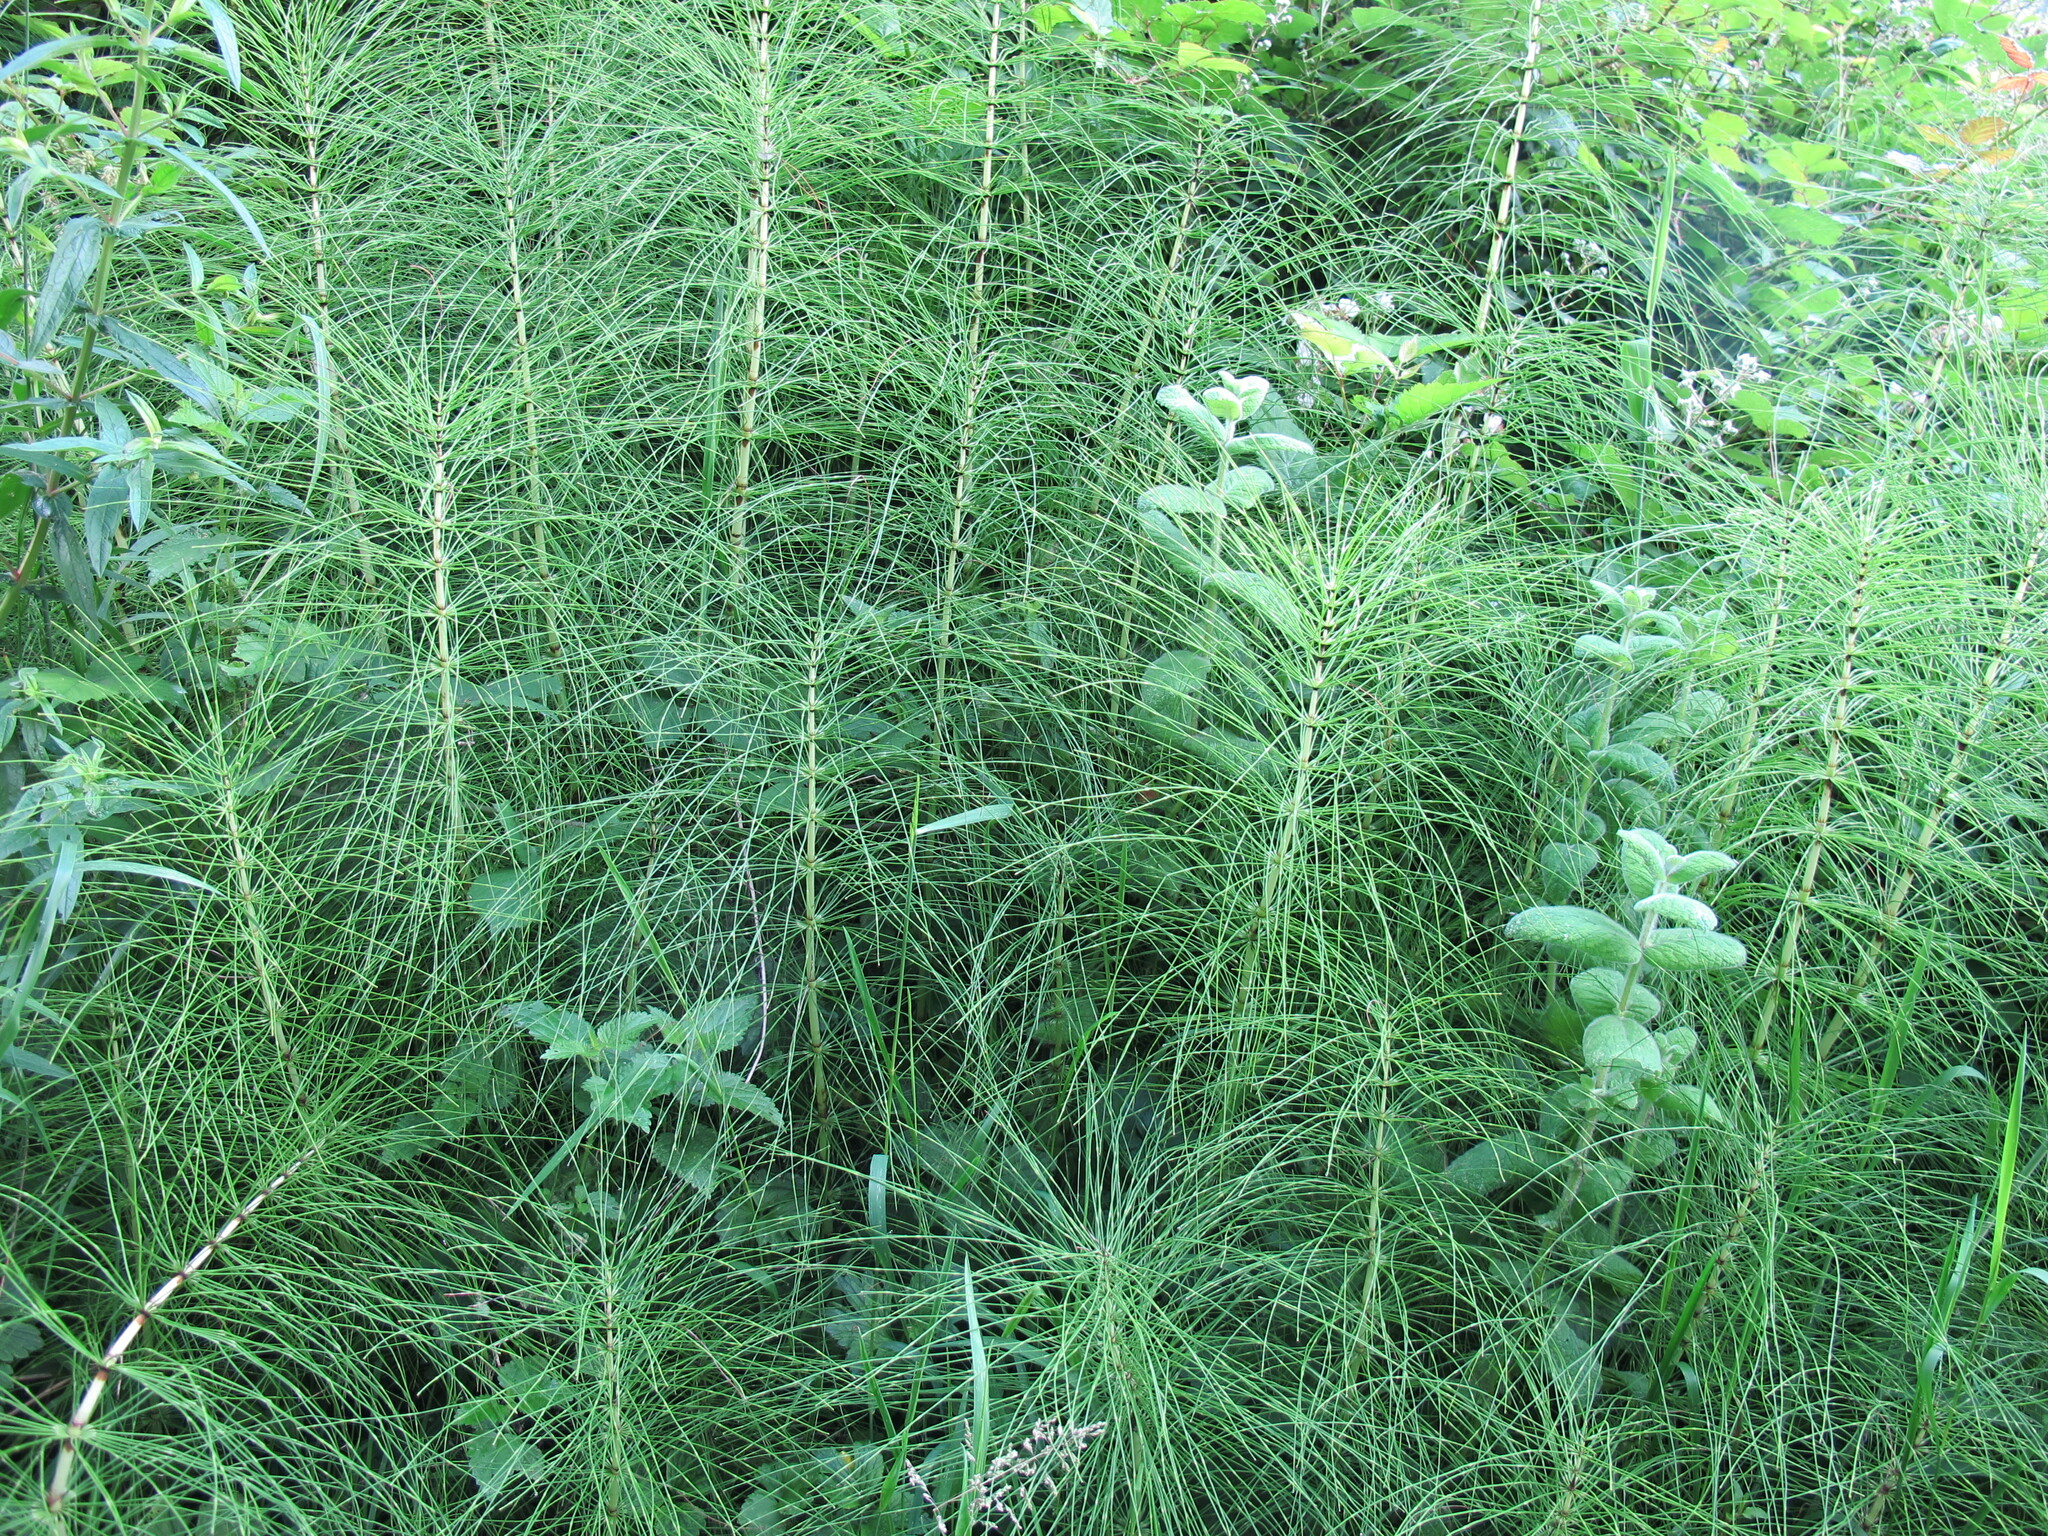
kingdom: Plantae
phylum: Tracheophyta
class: Polypodiopsida
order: Equisetales
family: Equisetaceae
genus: Equisetum
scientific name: Equisetum telmateia
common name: Great horsetail
